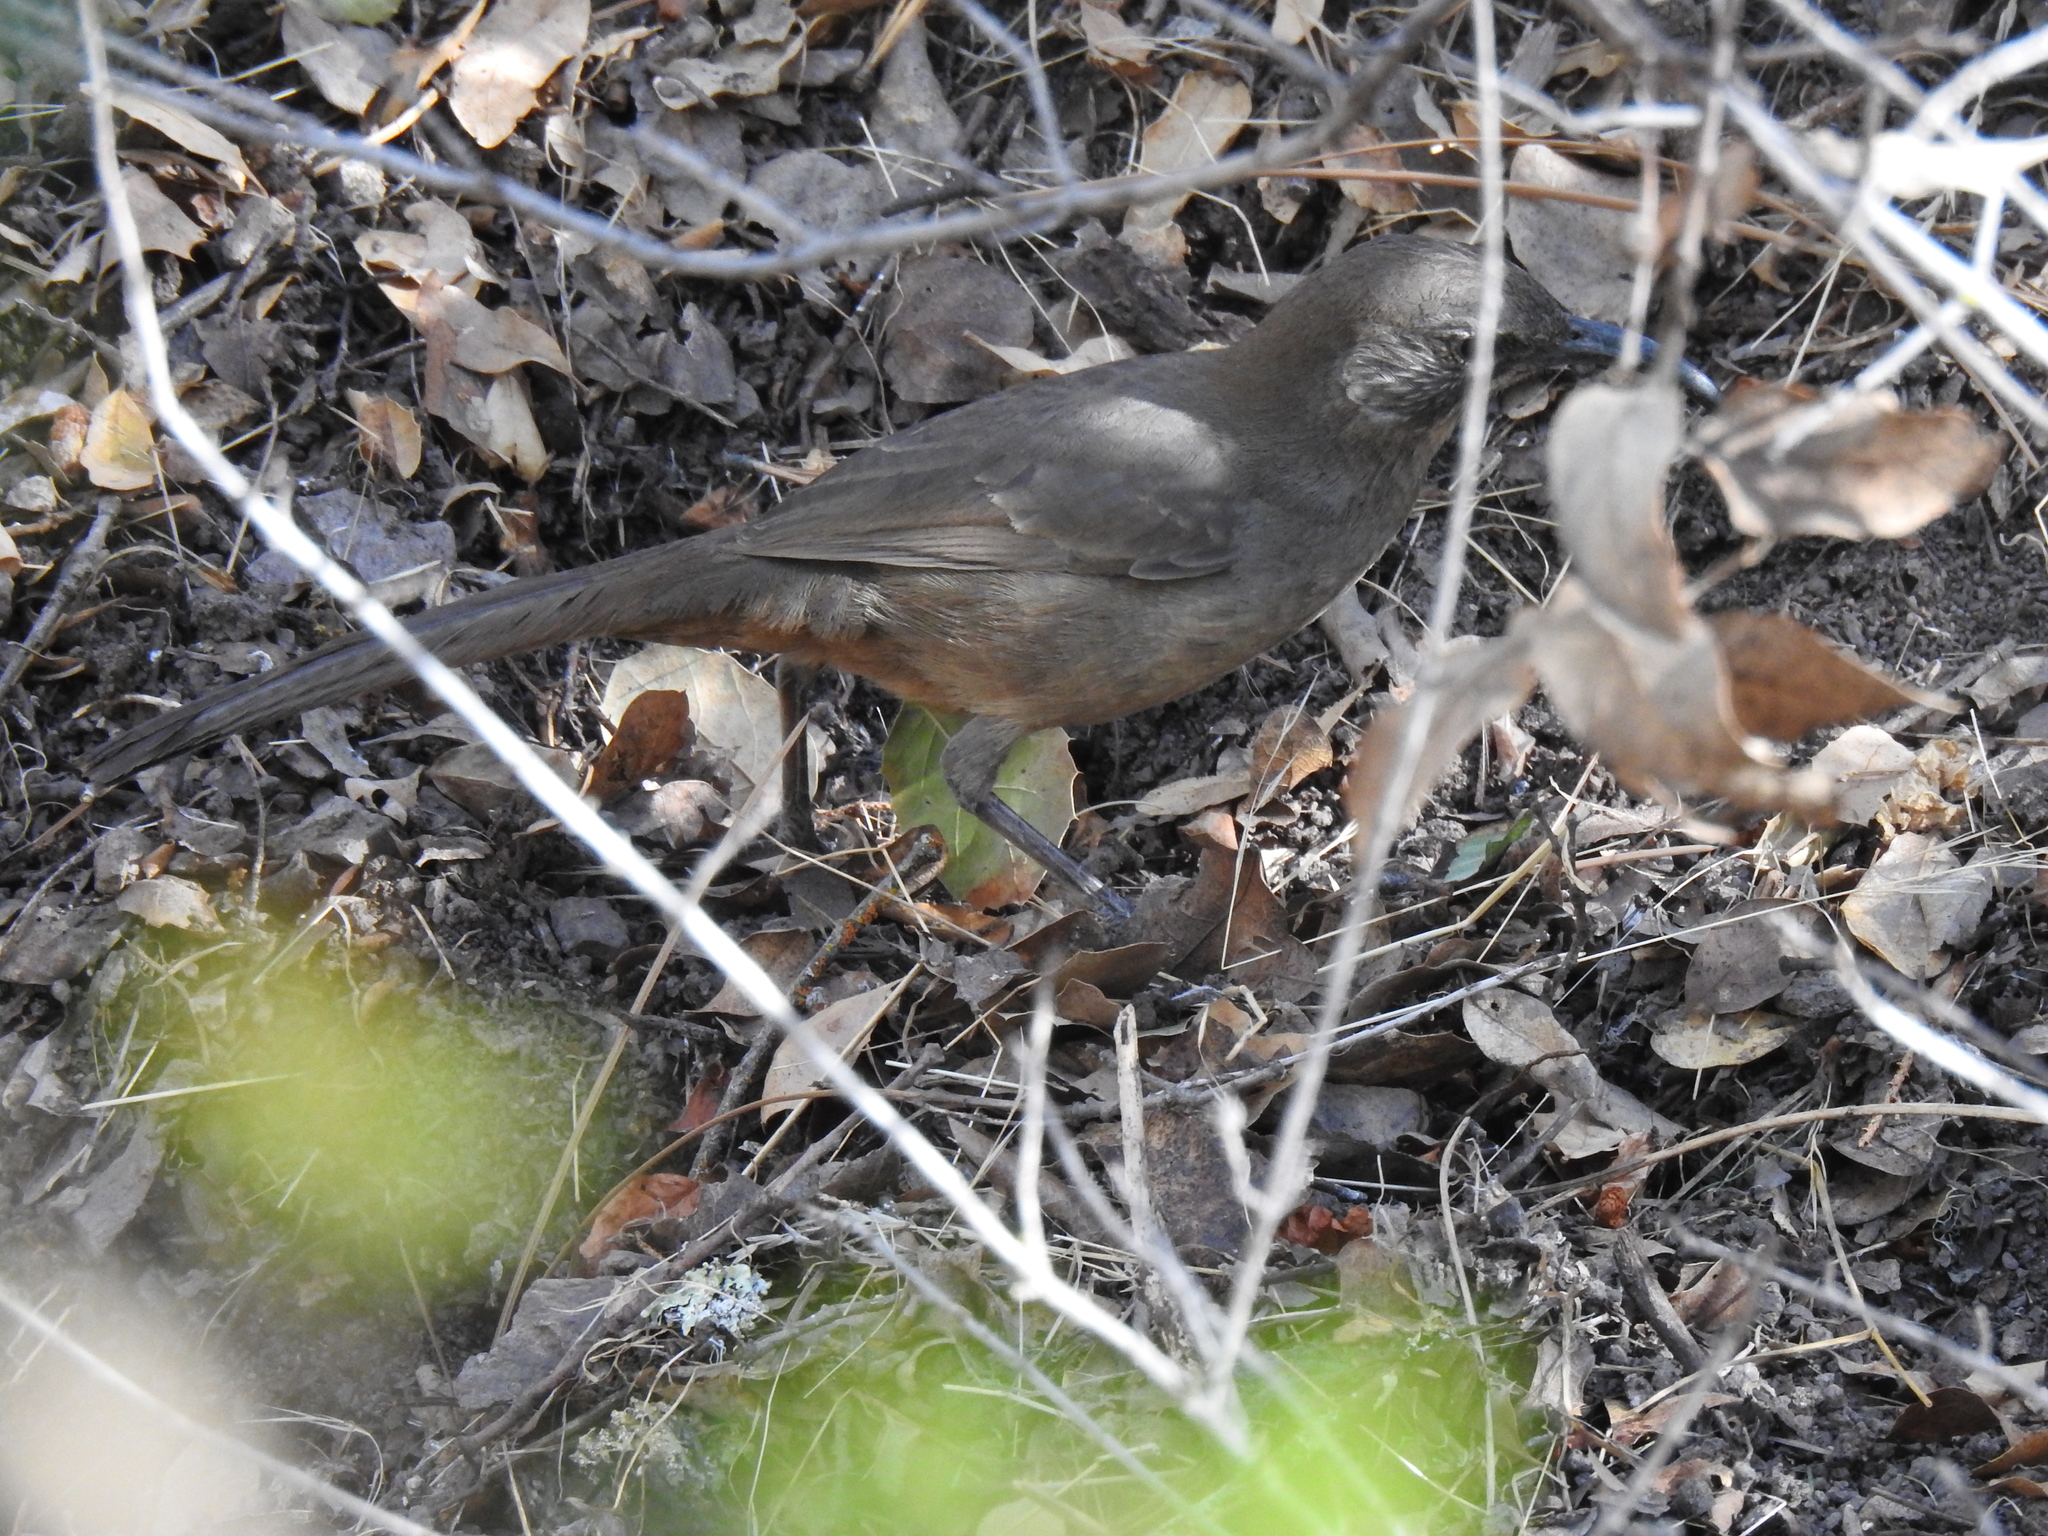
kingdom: Animalia
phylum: Chordata
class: Aves
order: Passeriformes
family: Mimidae
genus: Toxostoma
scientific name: Toxostoma redivivum
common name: California thrasher
